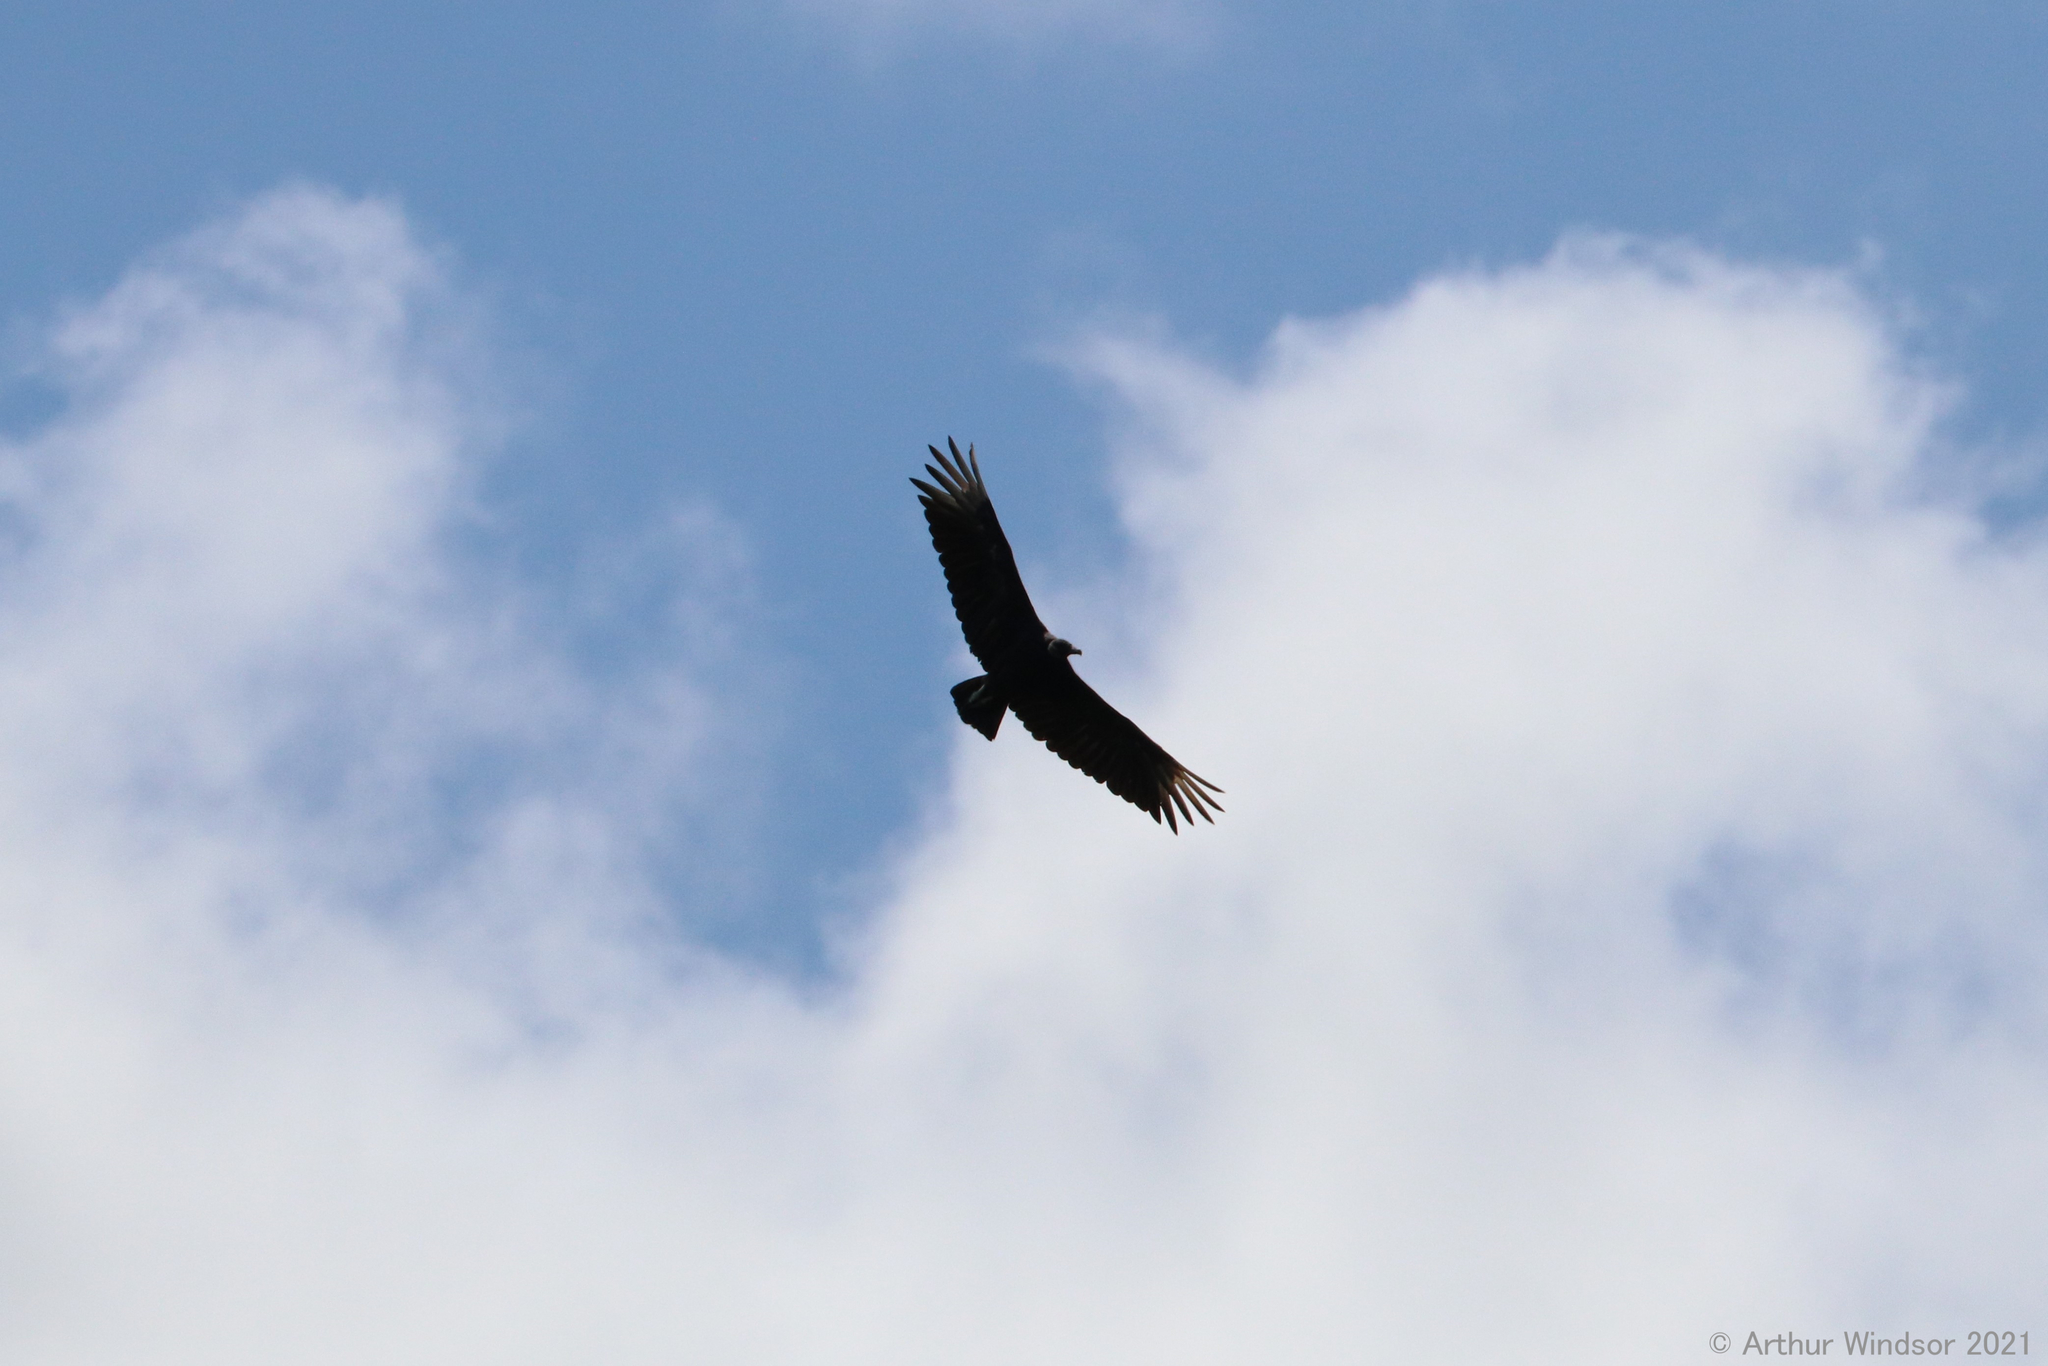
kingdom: Animalia
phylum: Chordata
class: Aves
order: Accipitriformes
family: Cathartidae
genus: Coragyps
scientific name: Coragyps atratus
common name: Black vulture
